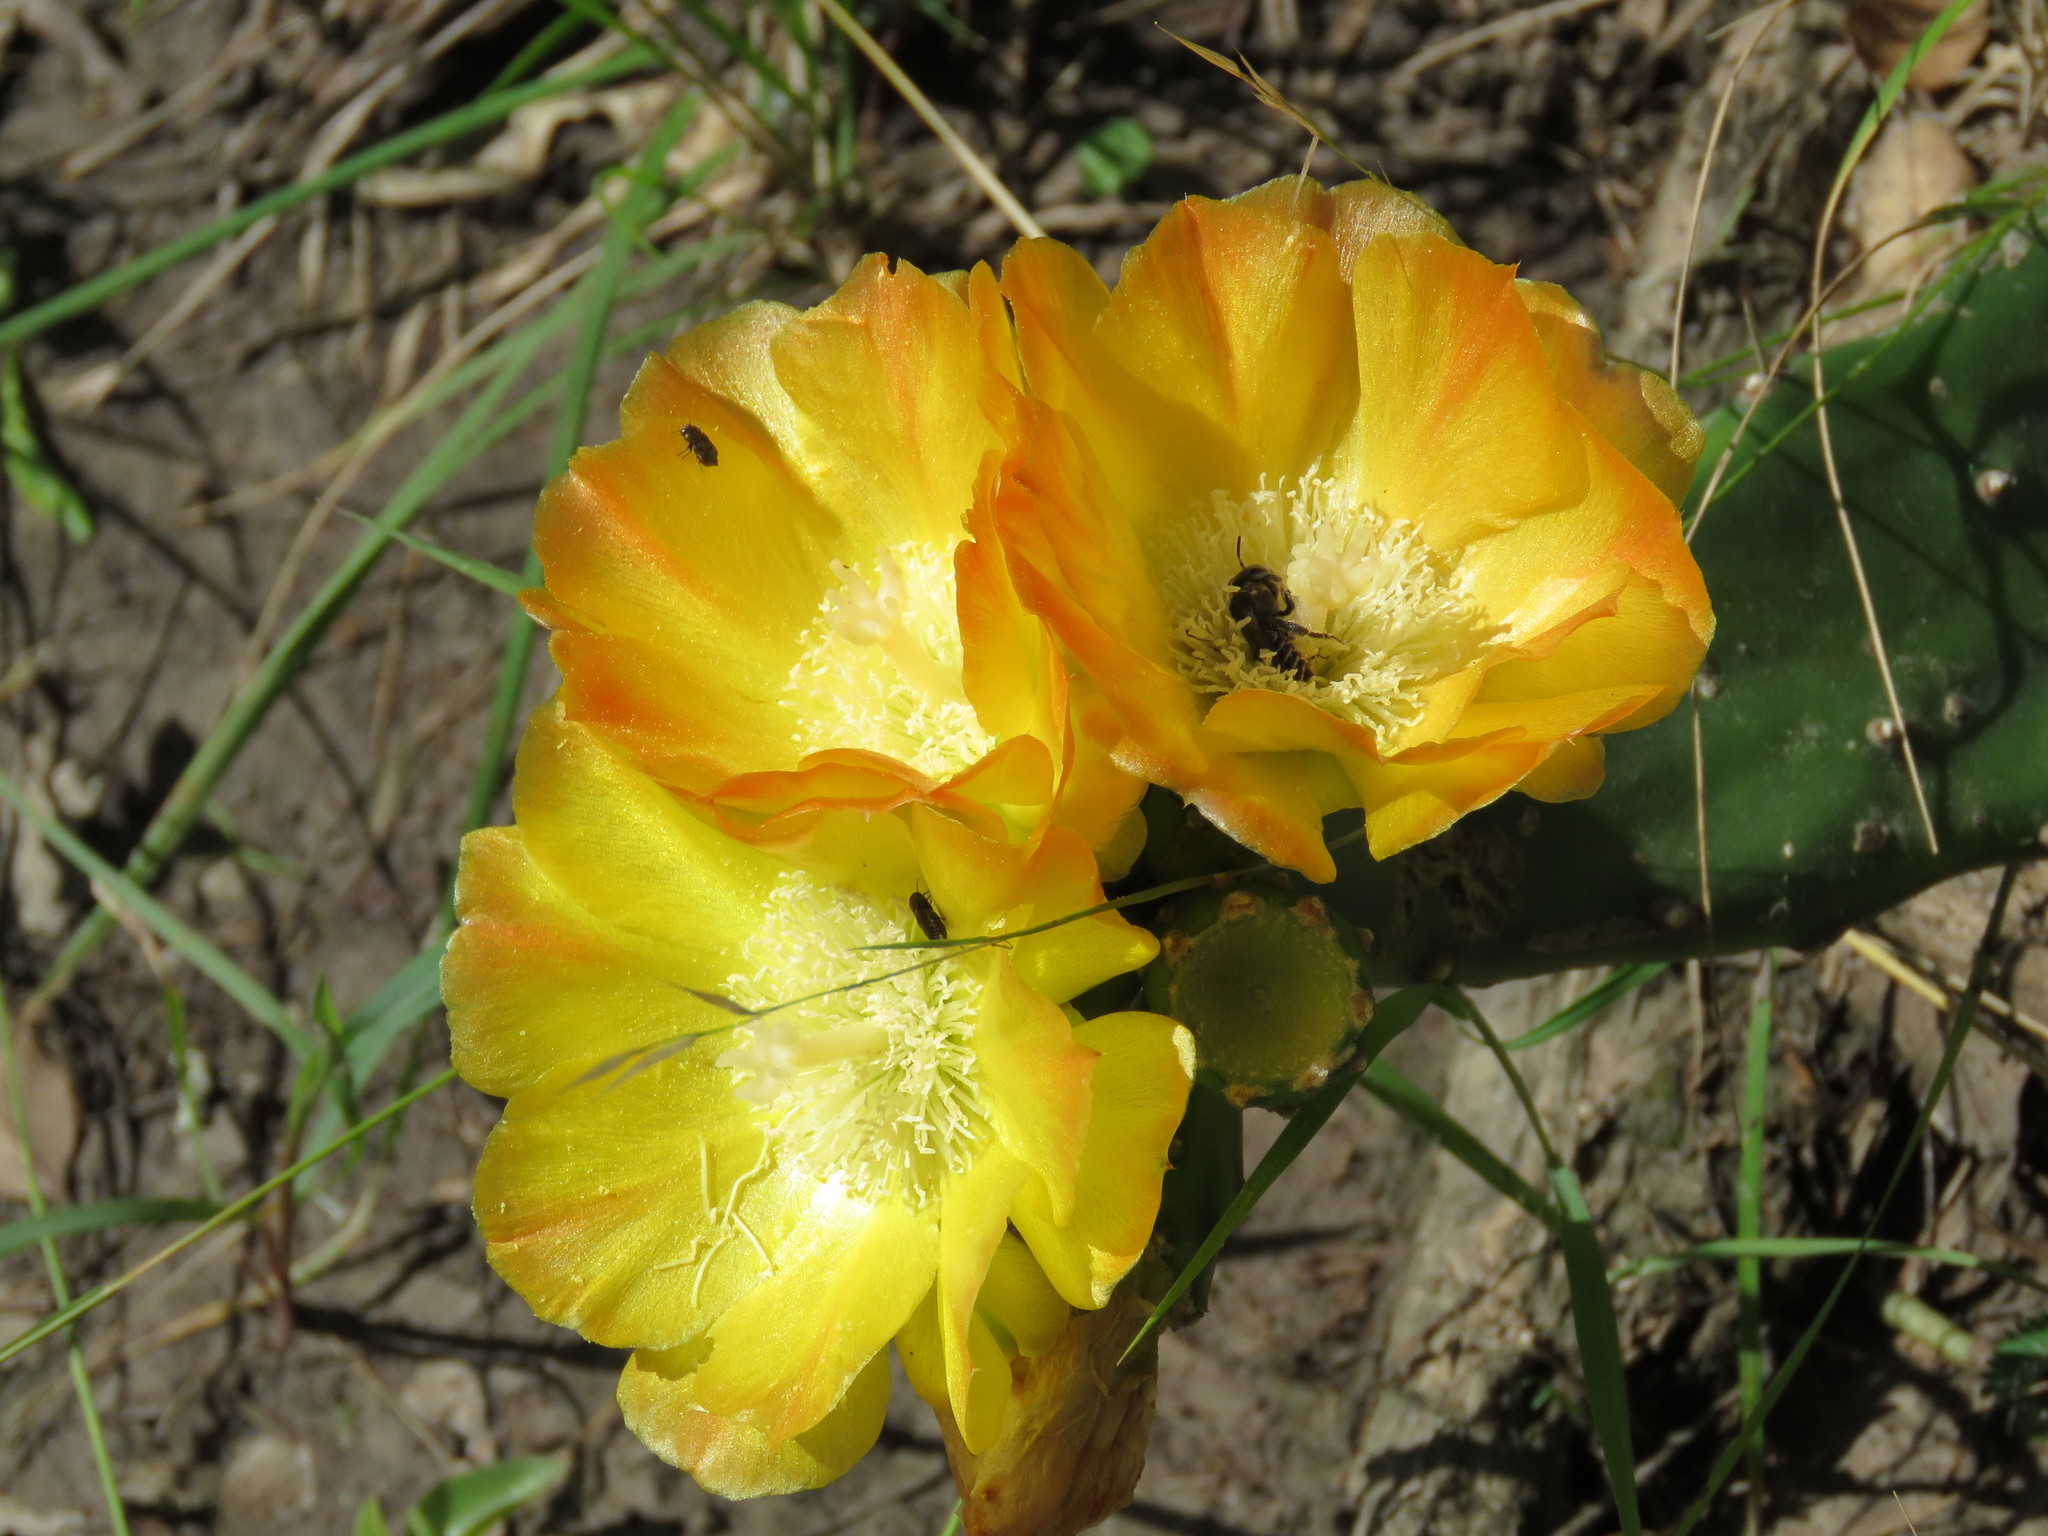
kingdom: Plantae
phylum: Tracheophyta
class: Magnoliopsida
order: Caryophyllales
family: Cactaceae
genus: Opuntia
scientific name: Opuntia anacantha
